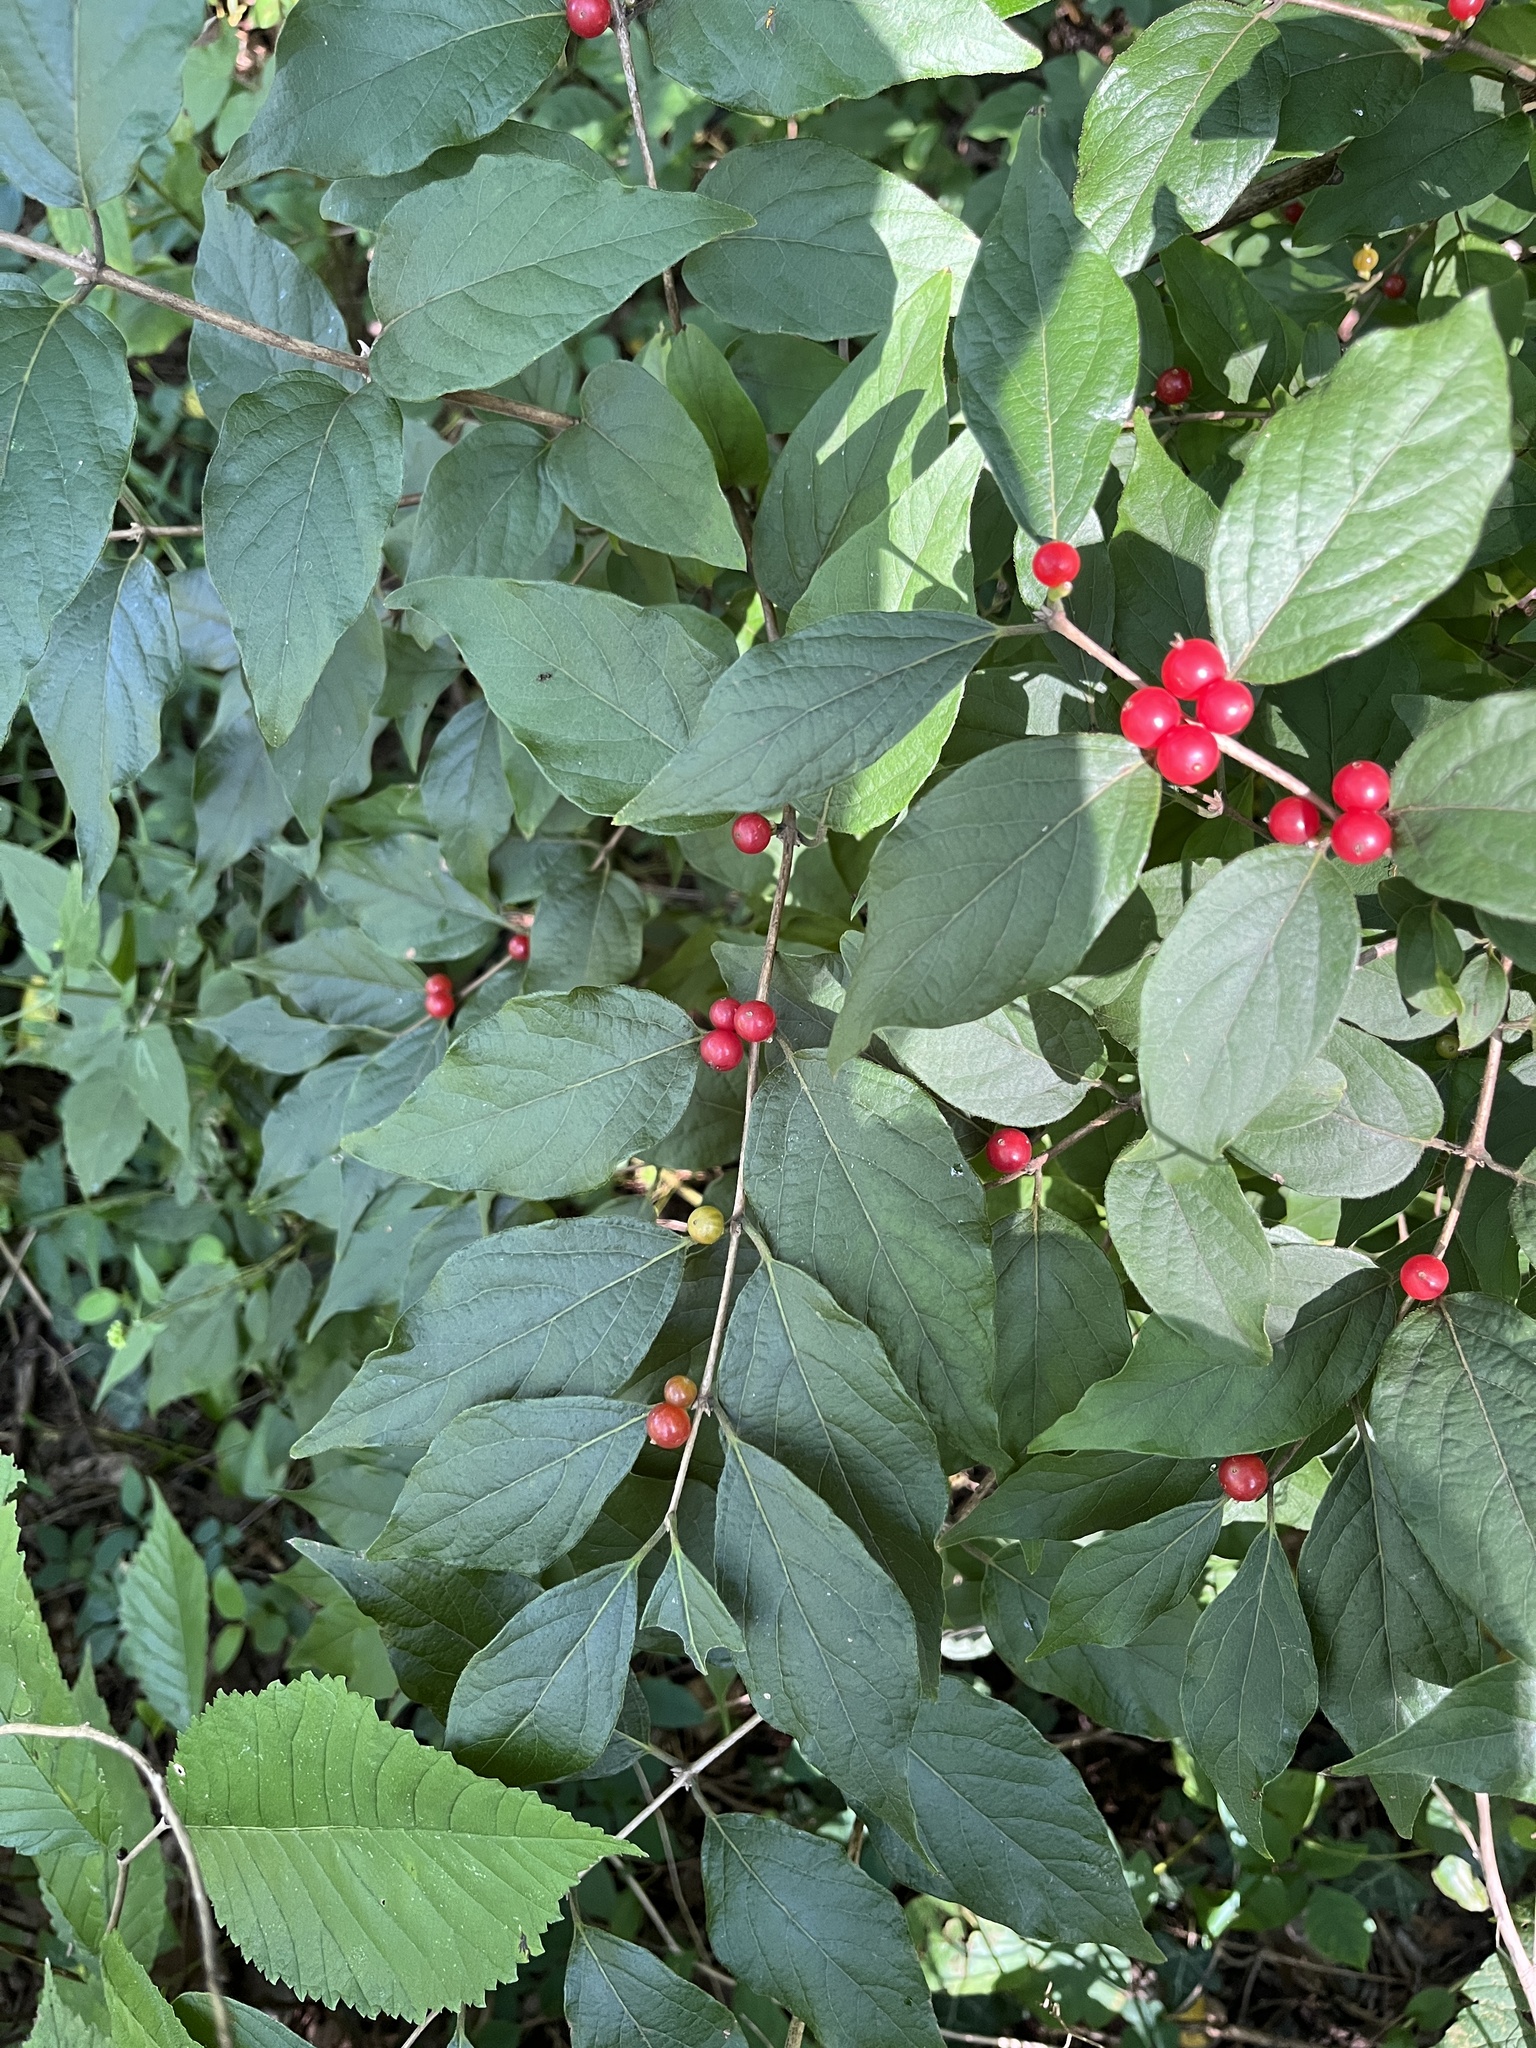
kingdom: Plantae
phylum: Tracheophyta
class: Magnoliopsida
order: Dipsacales
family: Caprifoliaceae
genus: Lonicera
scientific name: Lonicera maackii
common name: Amur honeysuckle
